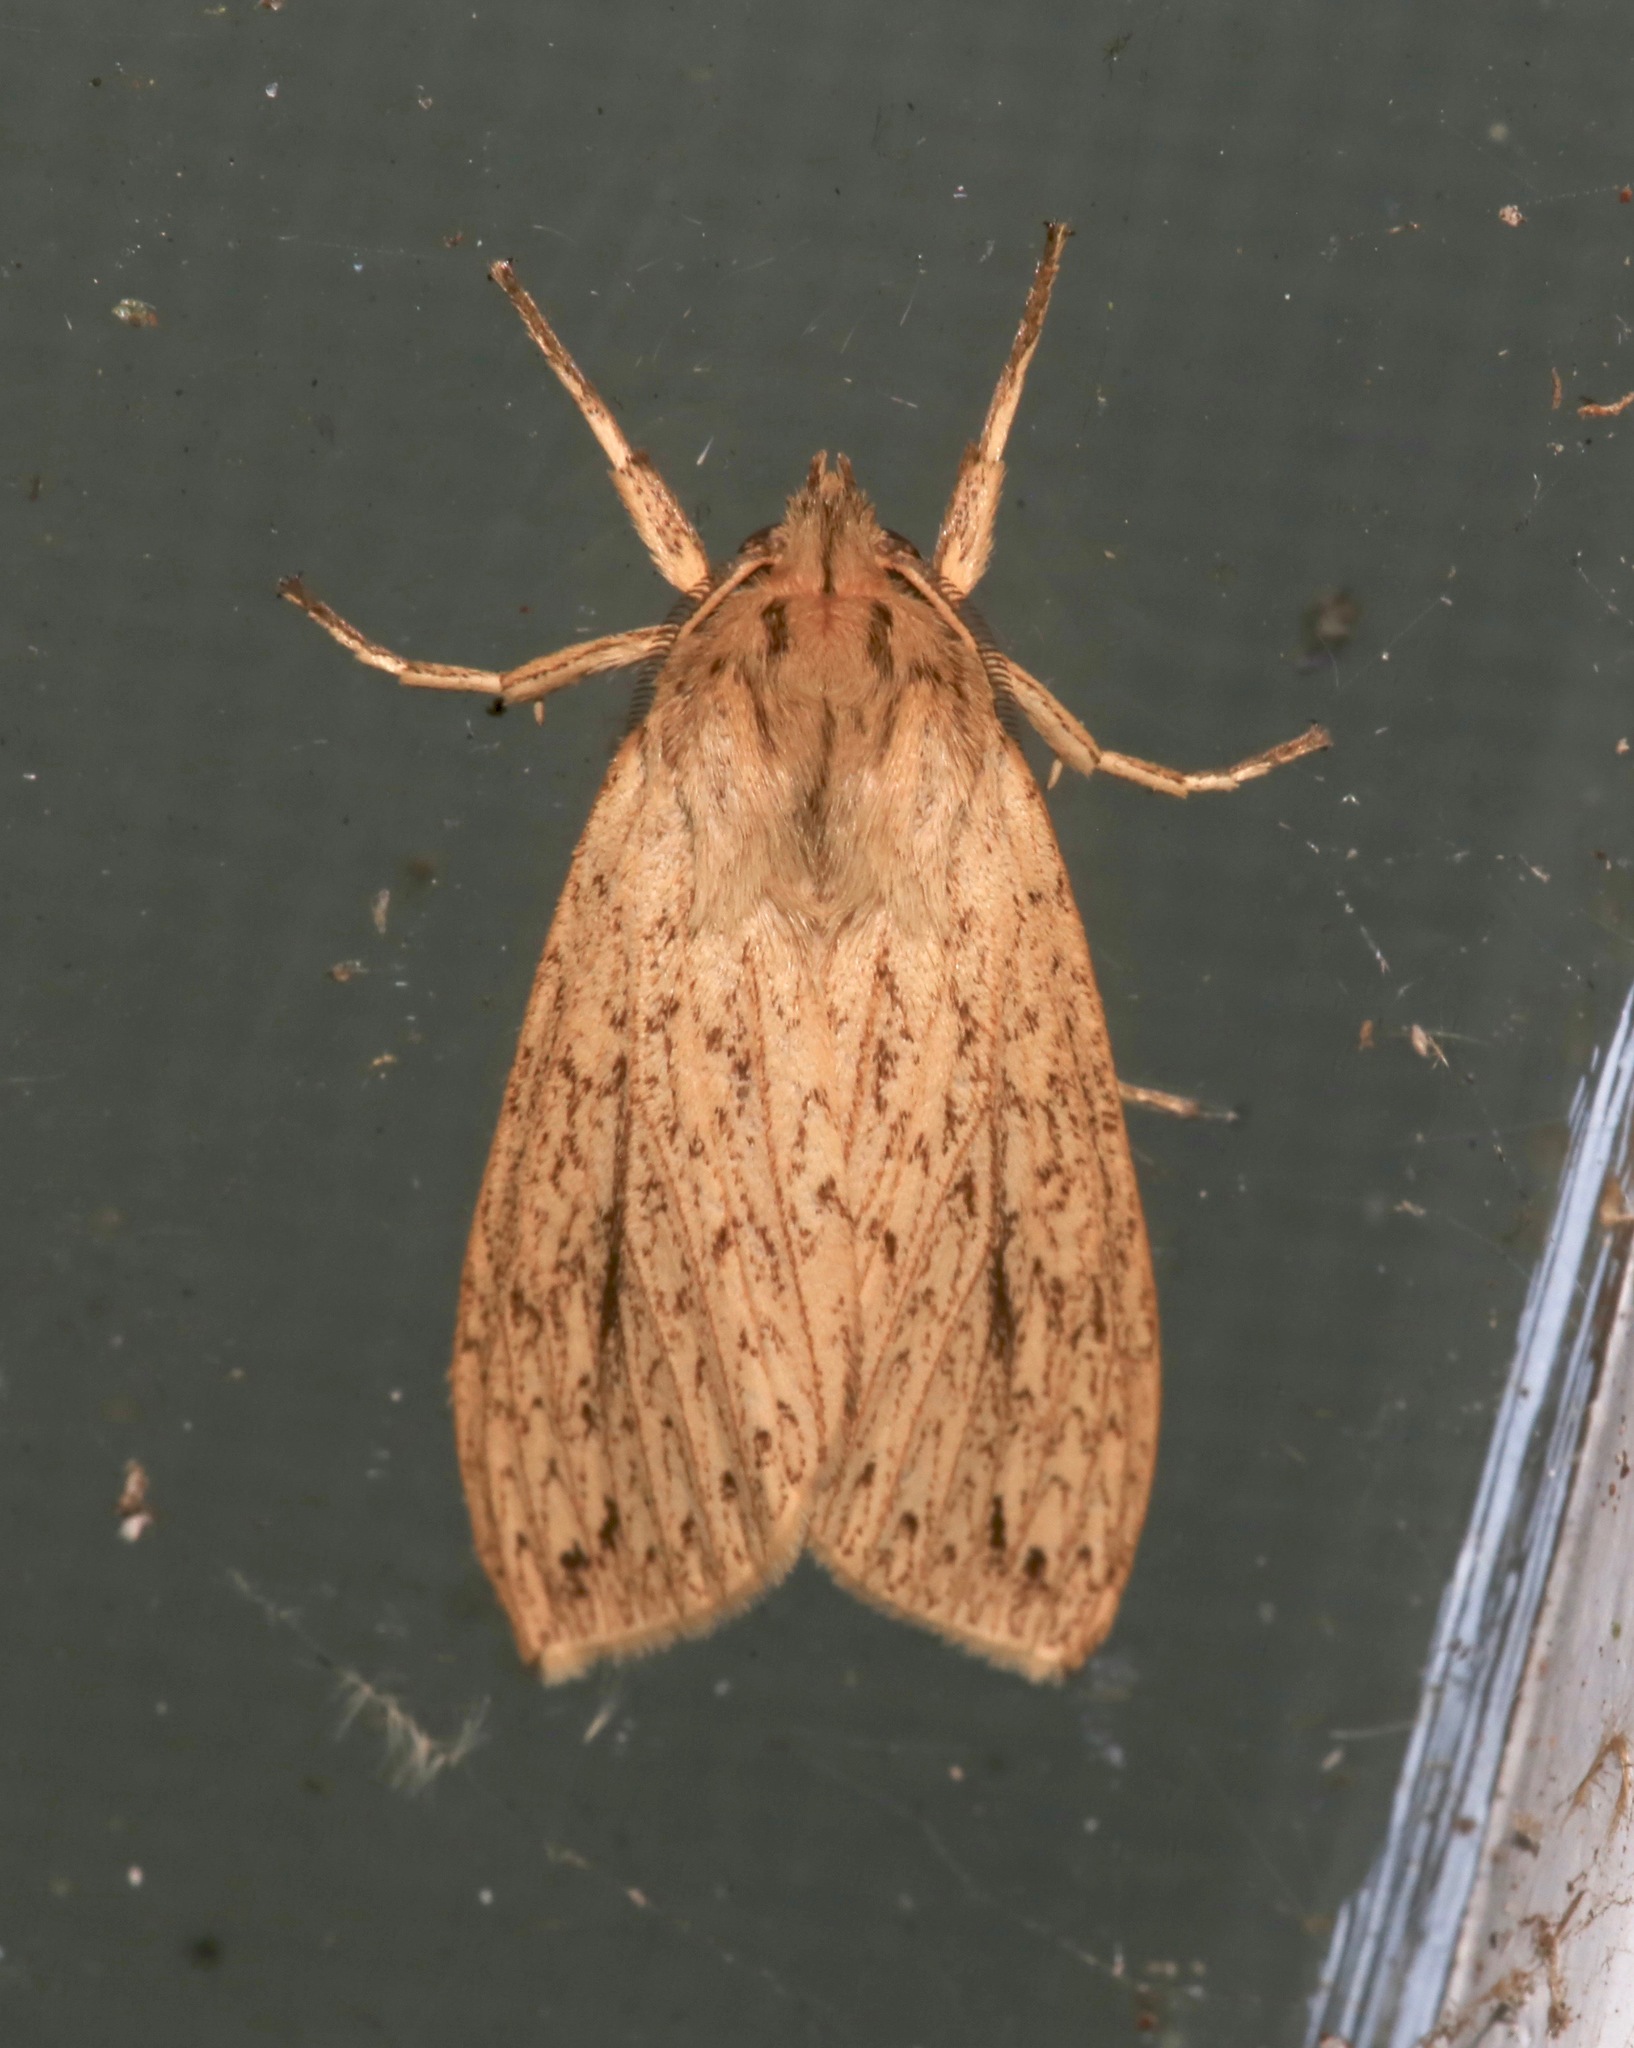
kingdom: Animalia
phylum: Arthropoda
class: Insecta
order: Lepidoptera
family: Erebidae
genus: Leucanopsis
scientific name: Leucanopsis longa
